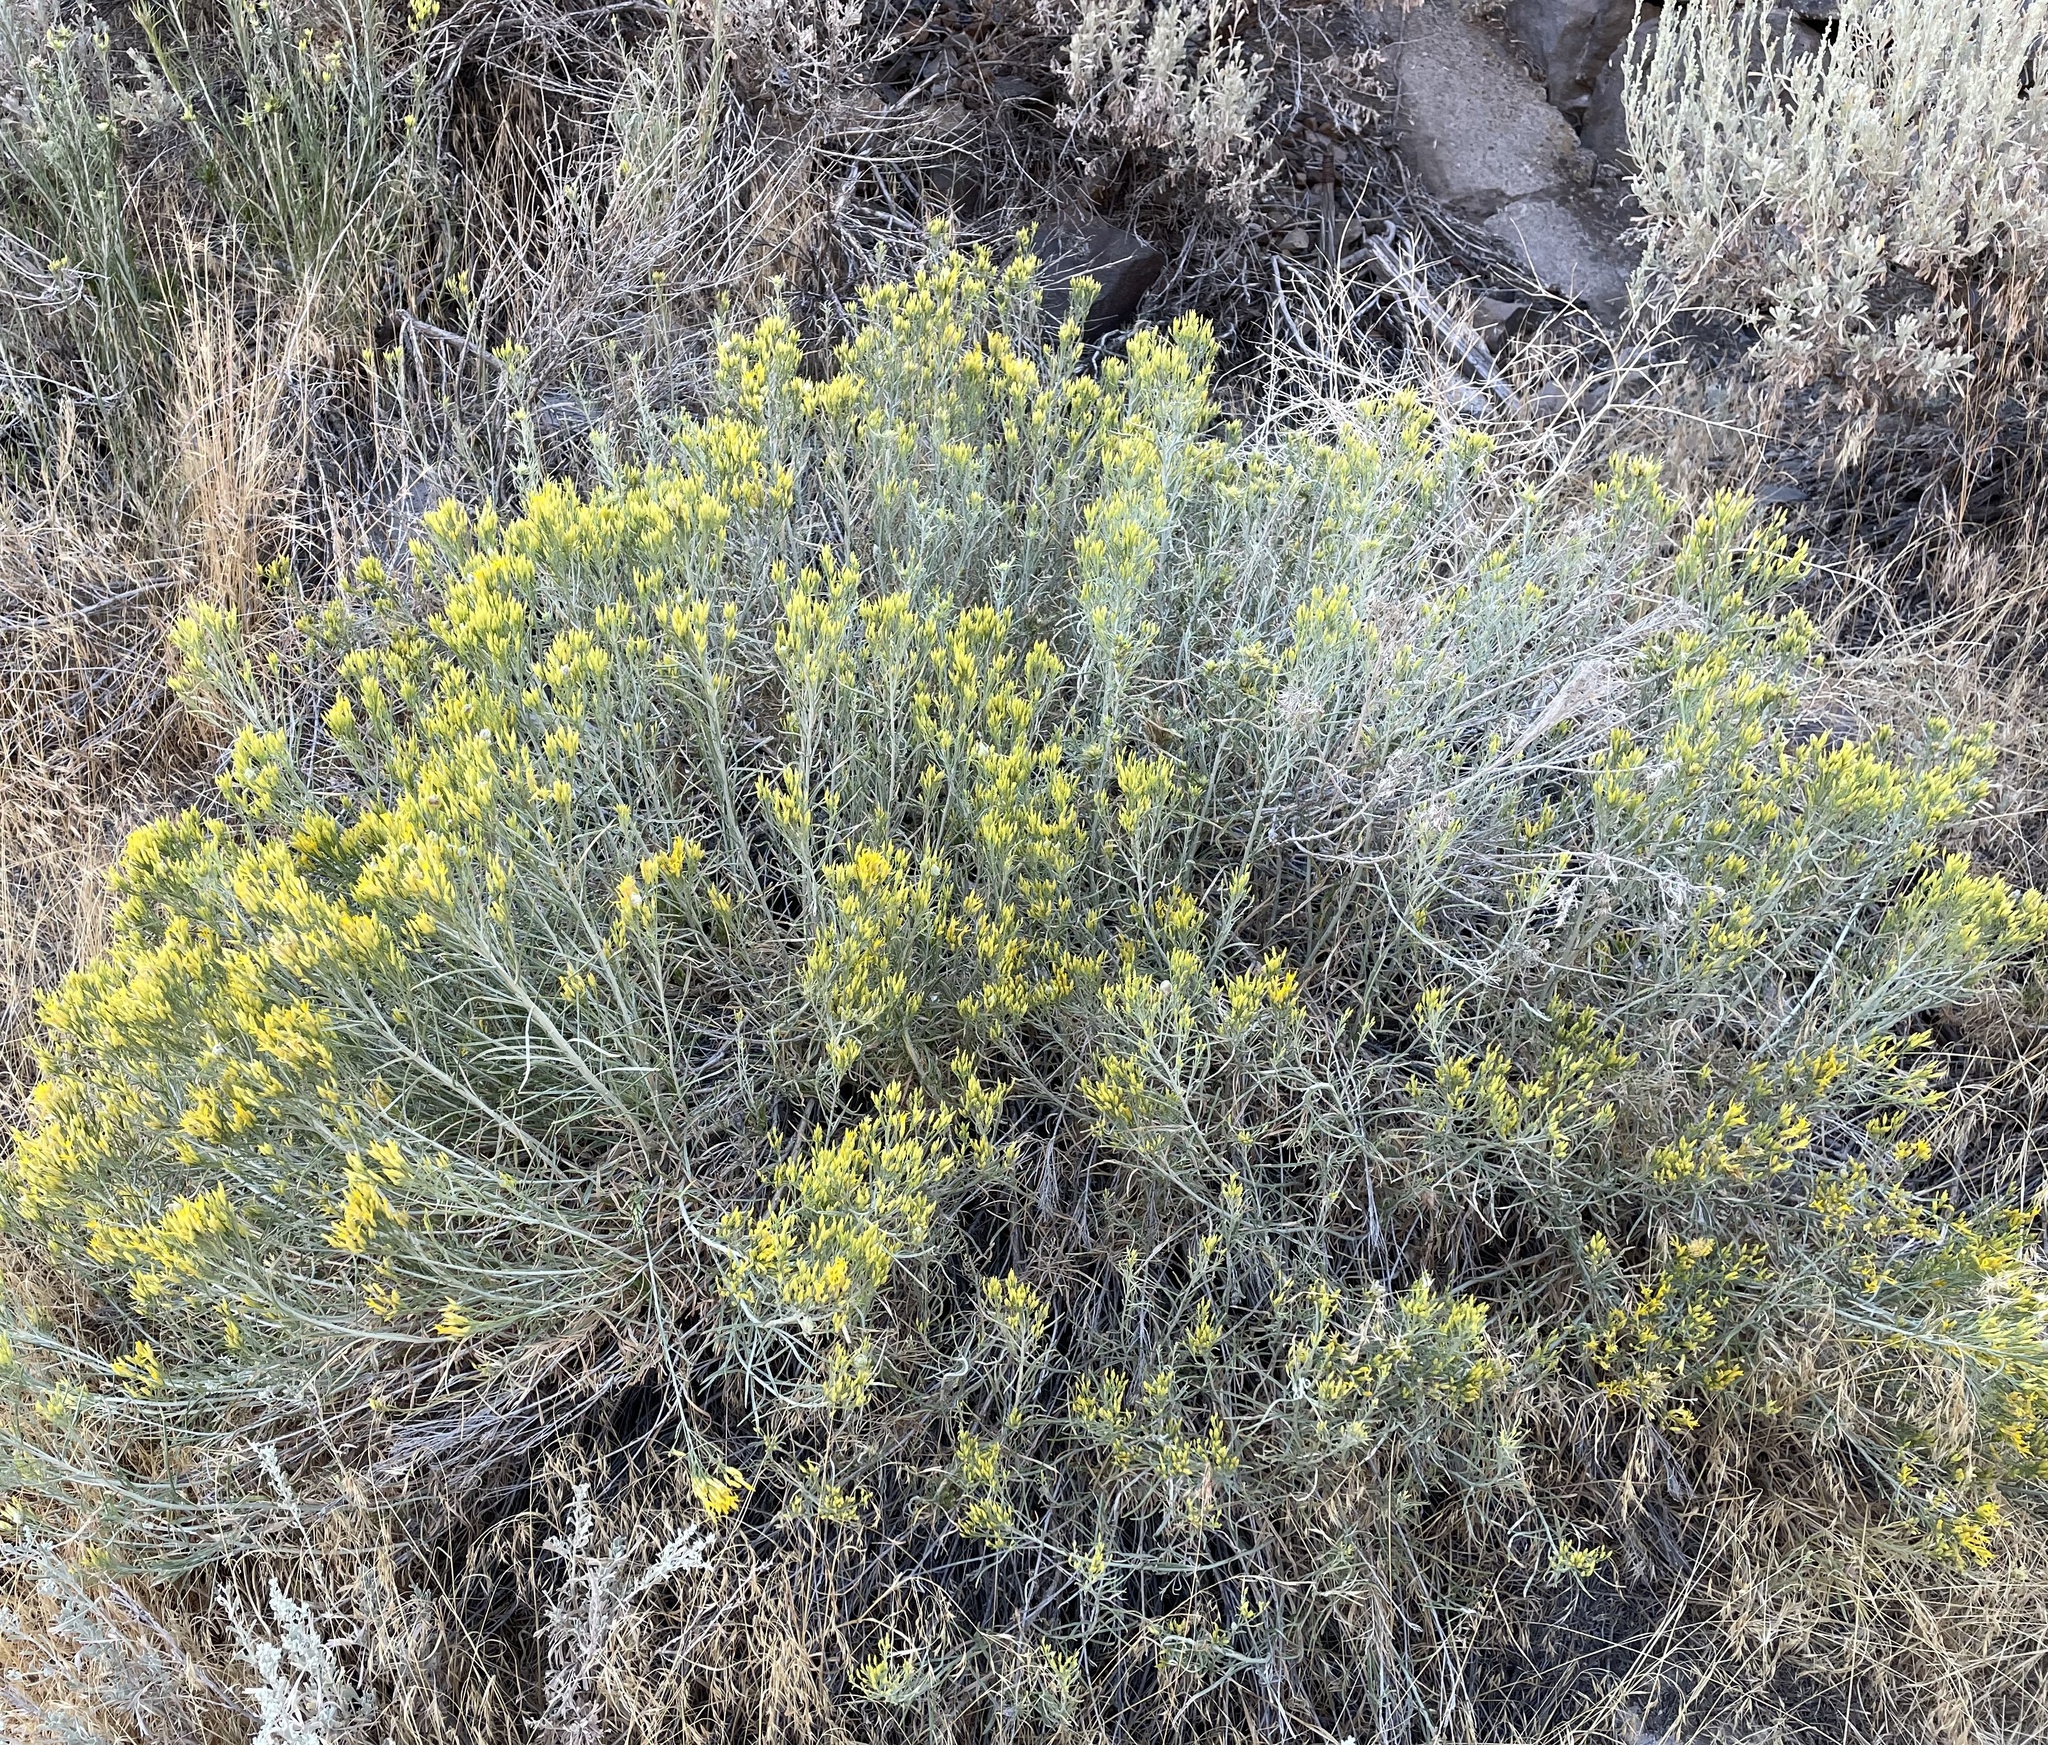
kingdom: Plantae
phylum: Tracheophyta
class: Magnoliopsida
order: Asterales
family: Asteraceae
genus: Ericameria
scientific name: Ericameria nauseosa
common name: Rubber rabbitbrush
